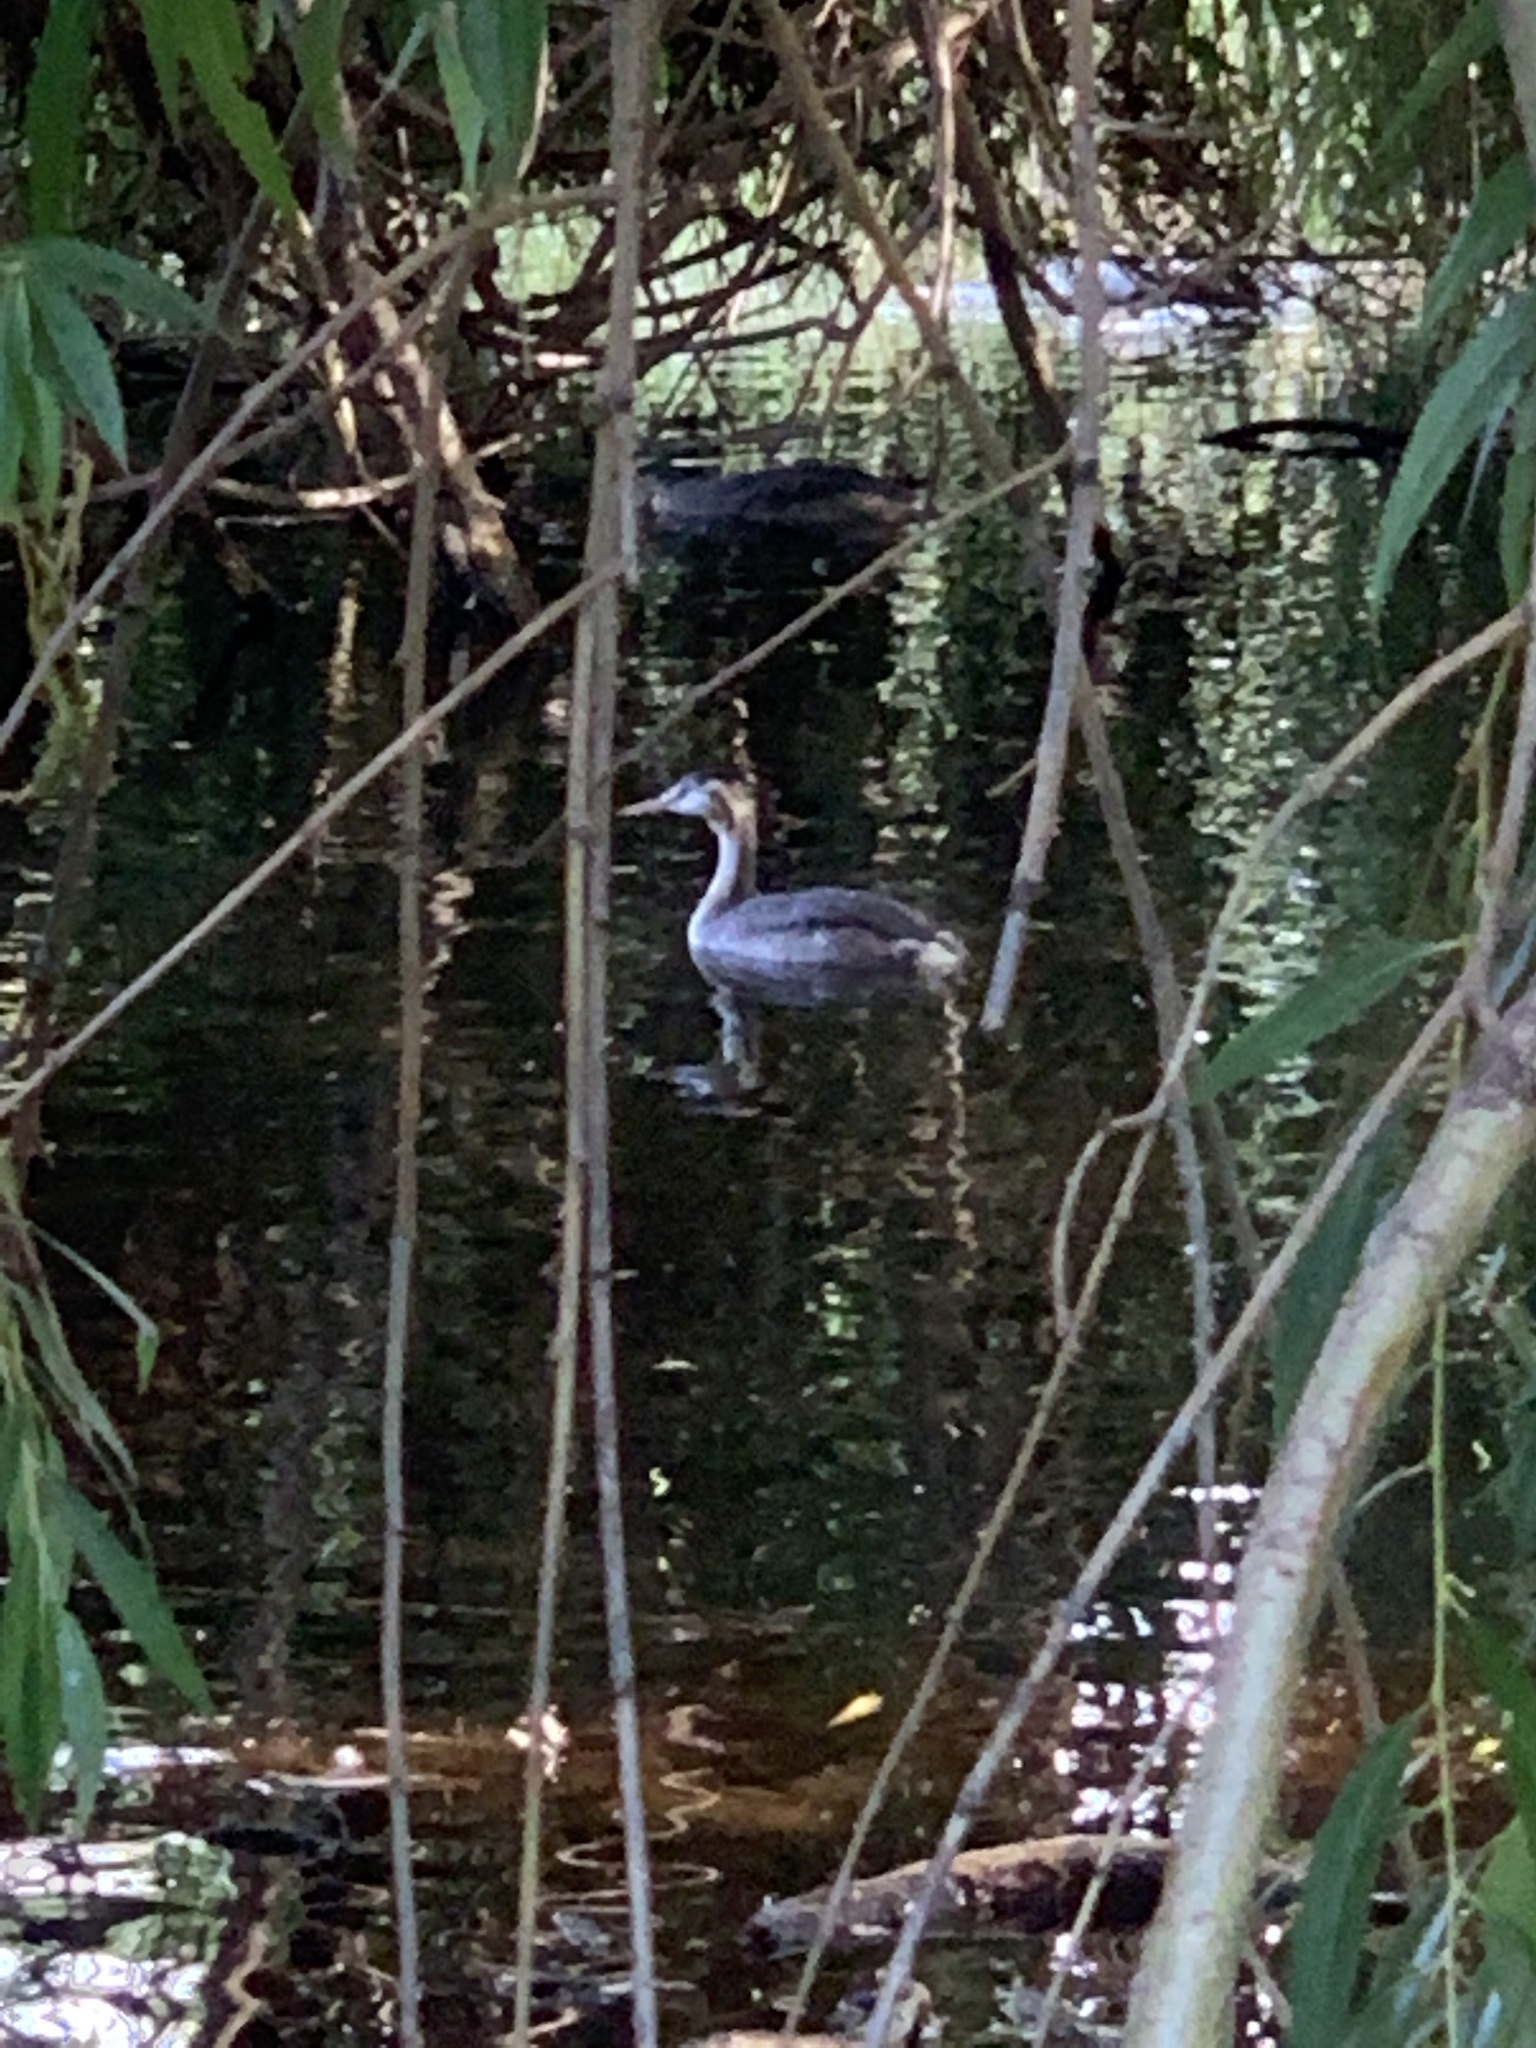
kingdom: Animalia
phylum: Chordata
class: Aves
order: Podicipediformes
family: Podicipedidae
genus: Podiceps
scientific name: Podiceps cristatus
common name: Great crested grebe
